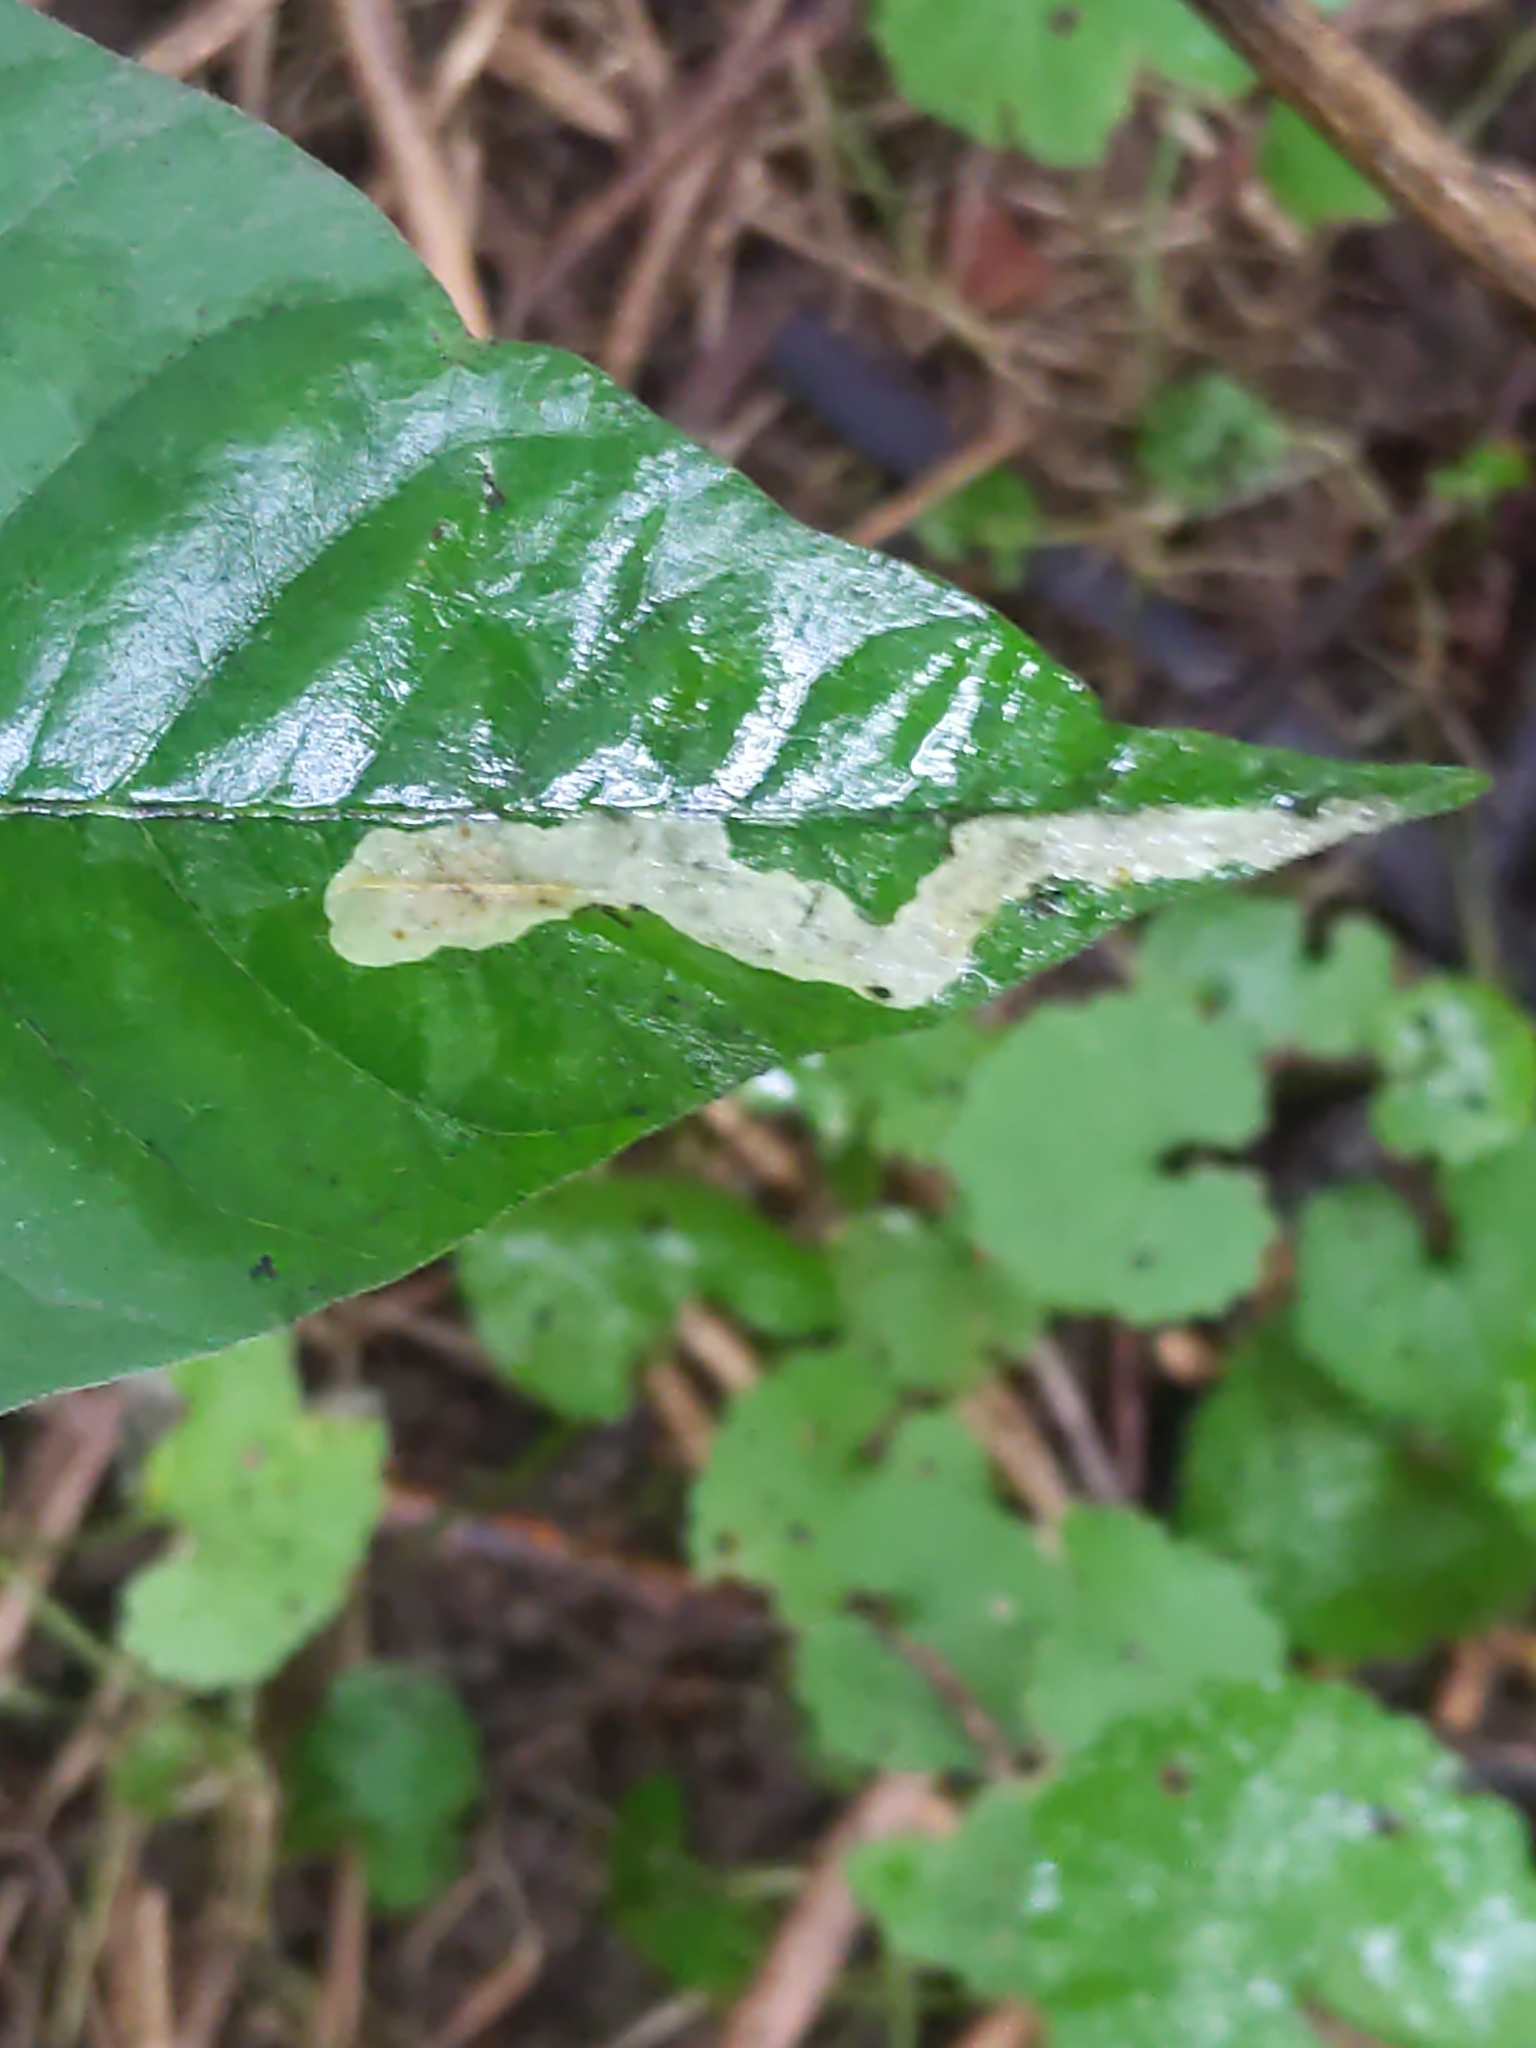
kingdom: Animalia
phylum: Arthropoda
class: Insecta
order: Lepidoptera
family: Gracillariidae
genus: Cameraria
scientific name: Cameraria guttifinitella
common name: Poison ivy leaf-miner moth
